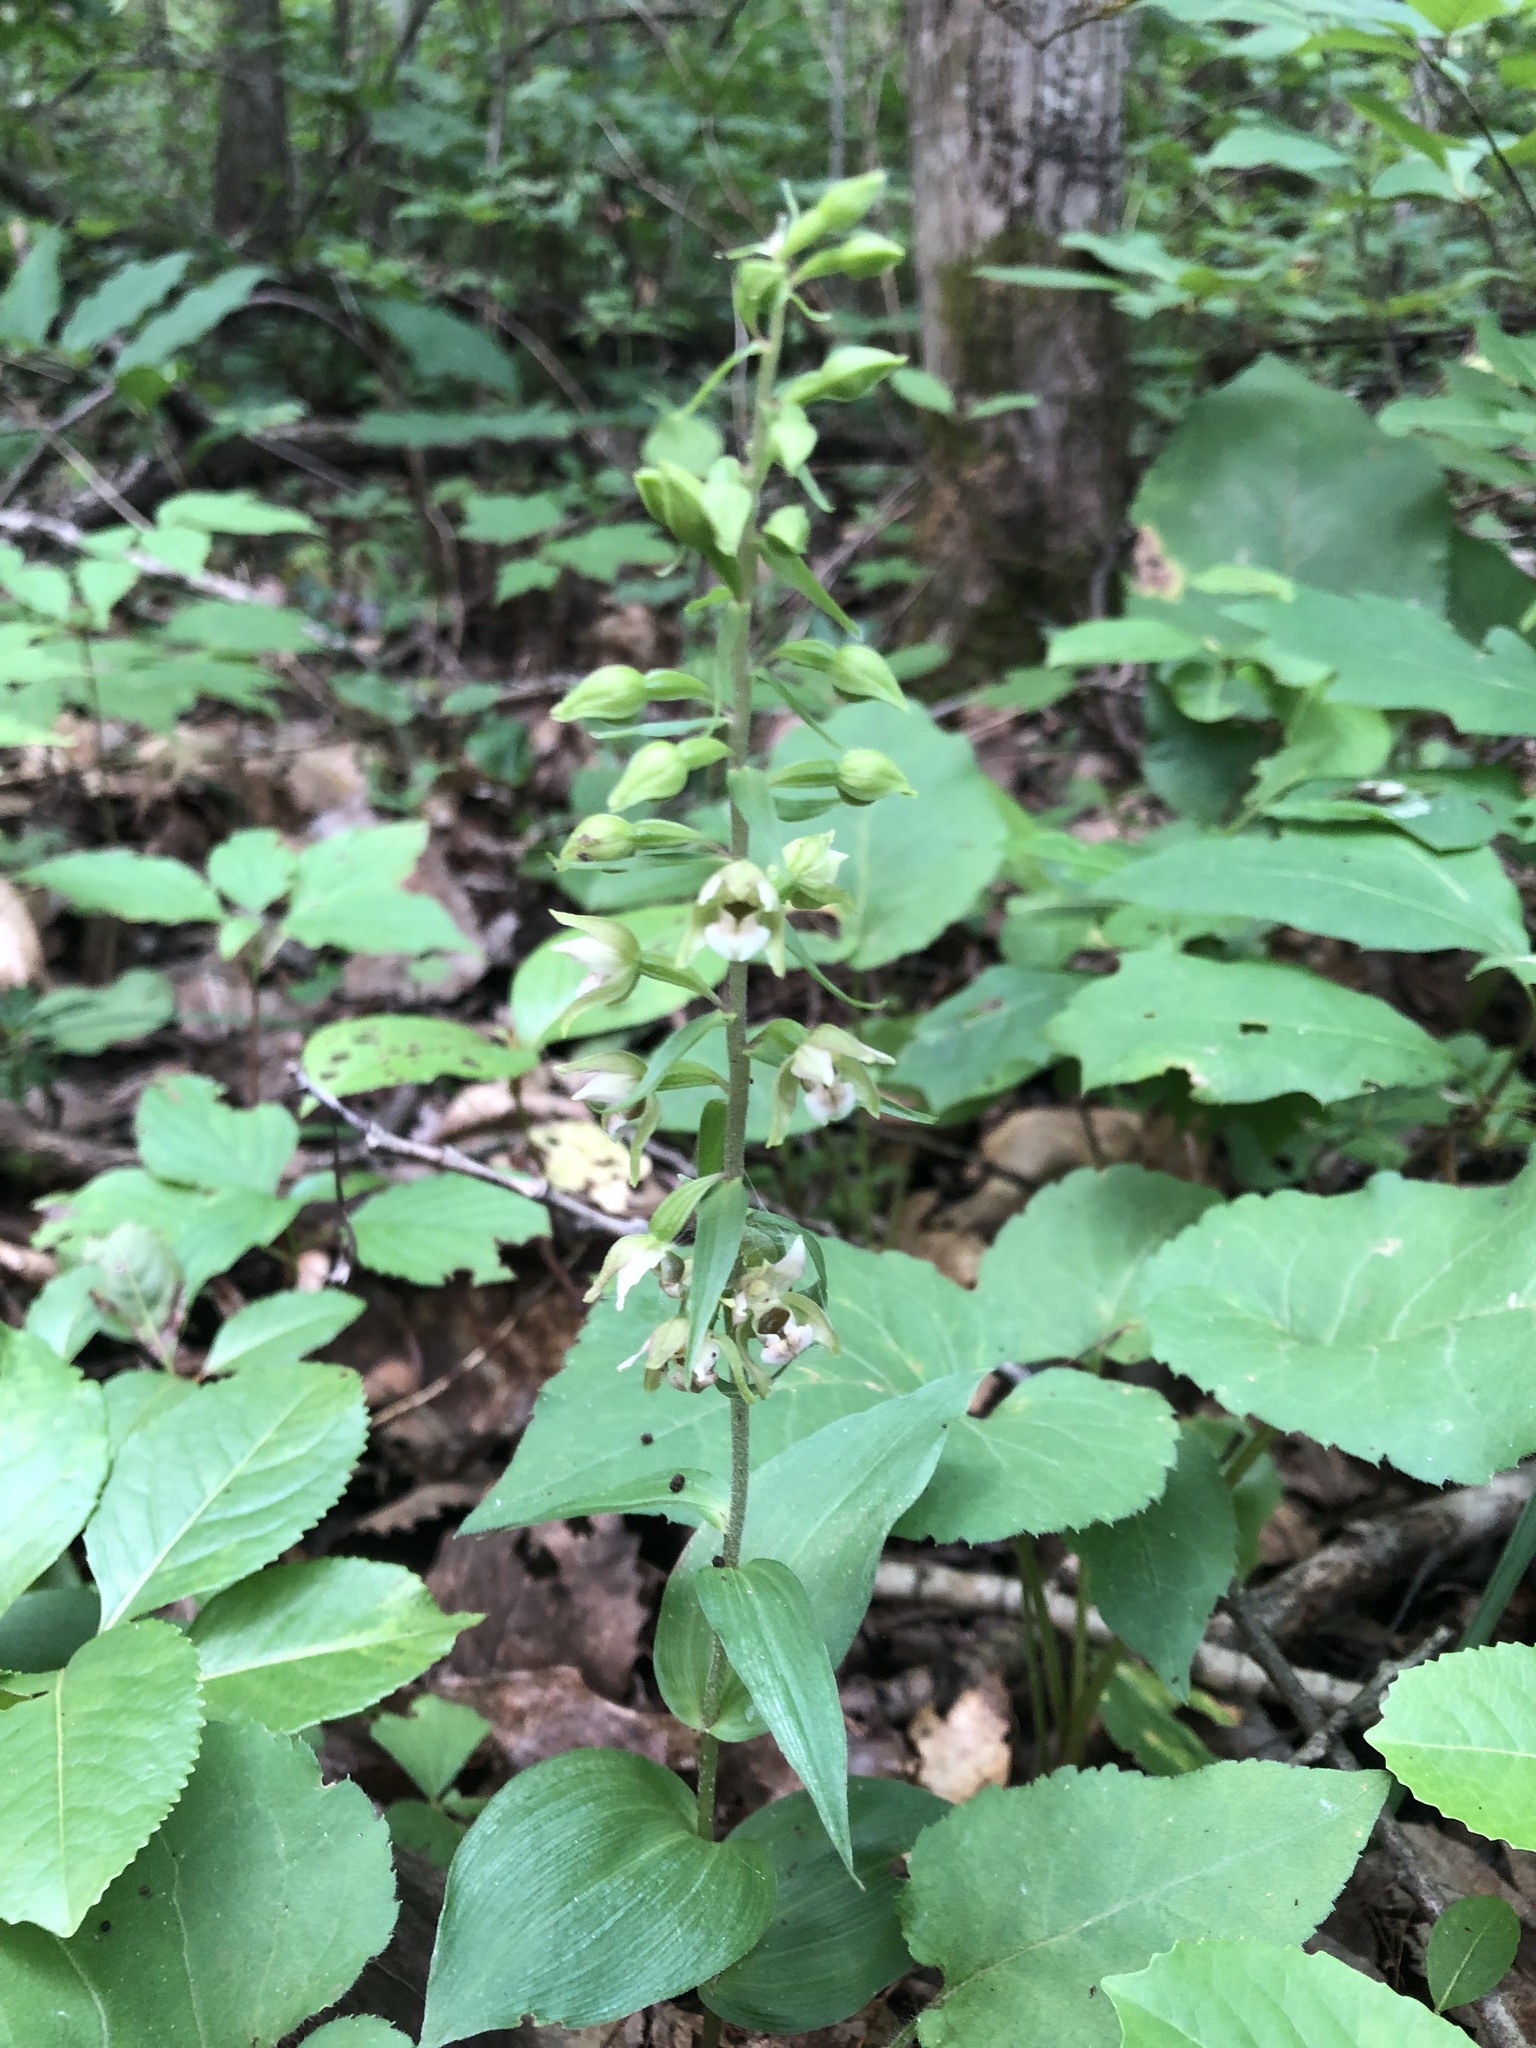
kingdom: Plantae
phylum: Tracheophyta
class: Liliopsida
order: Asparagales
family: Orchidaceae
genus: Epipactis
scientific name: Epipactis helleborine
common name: Broad-leaved helleborine
